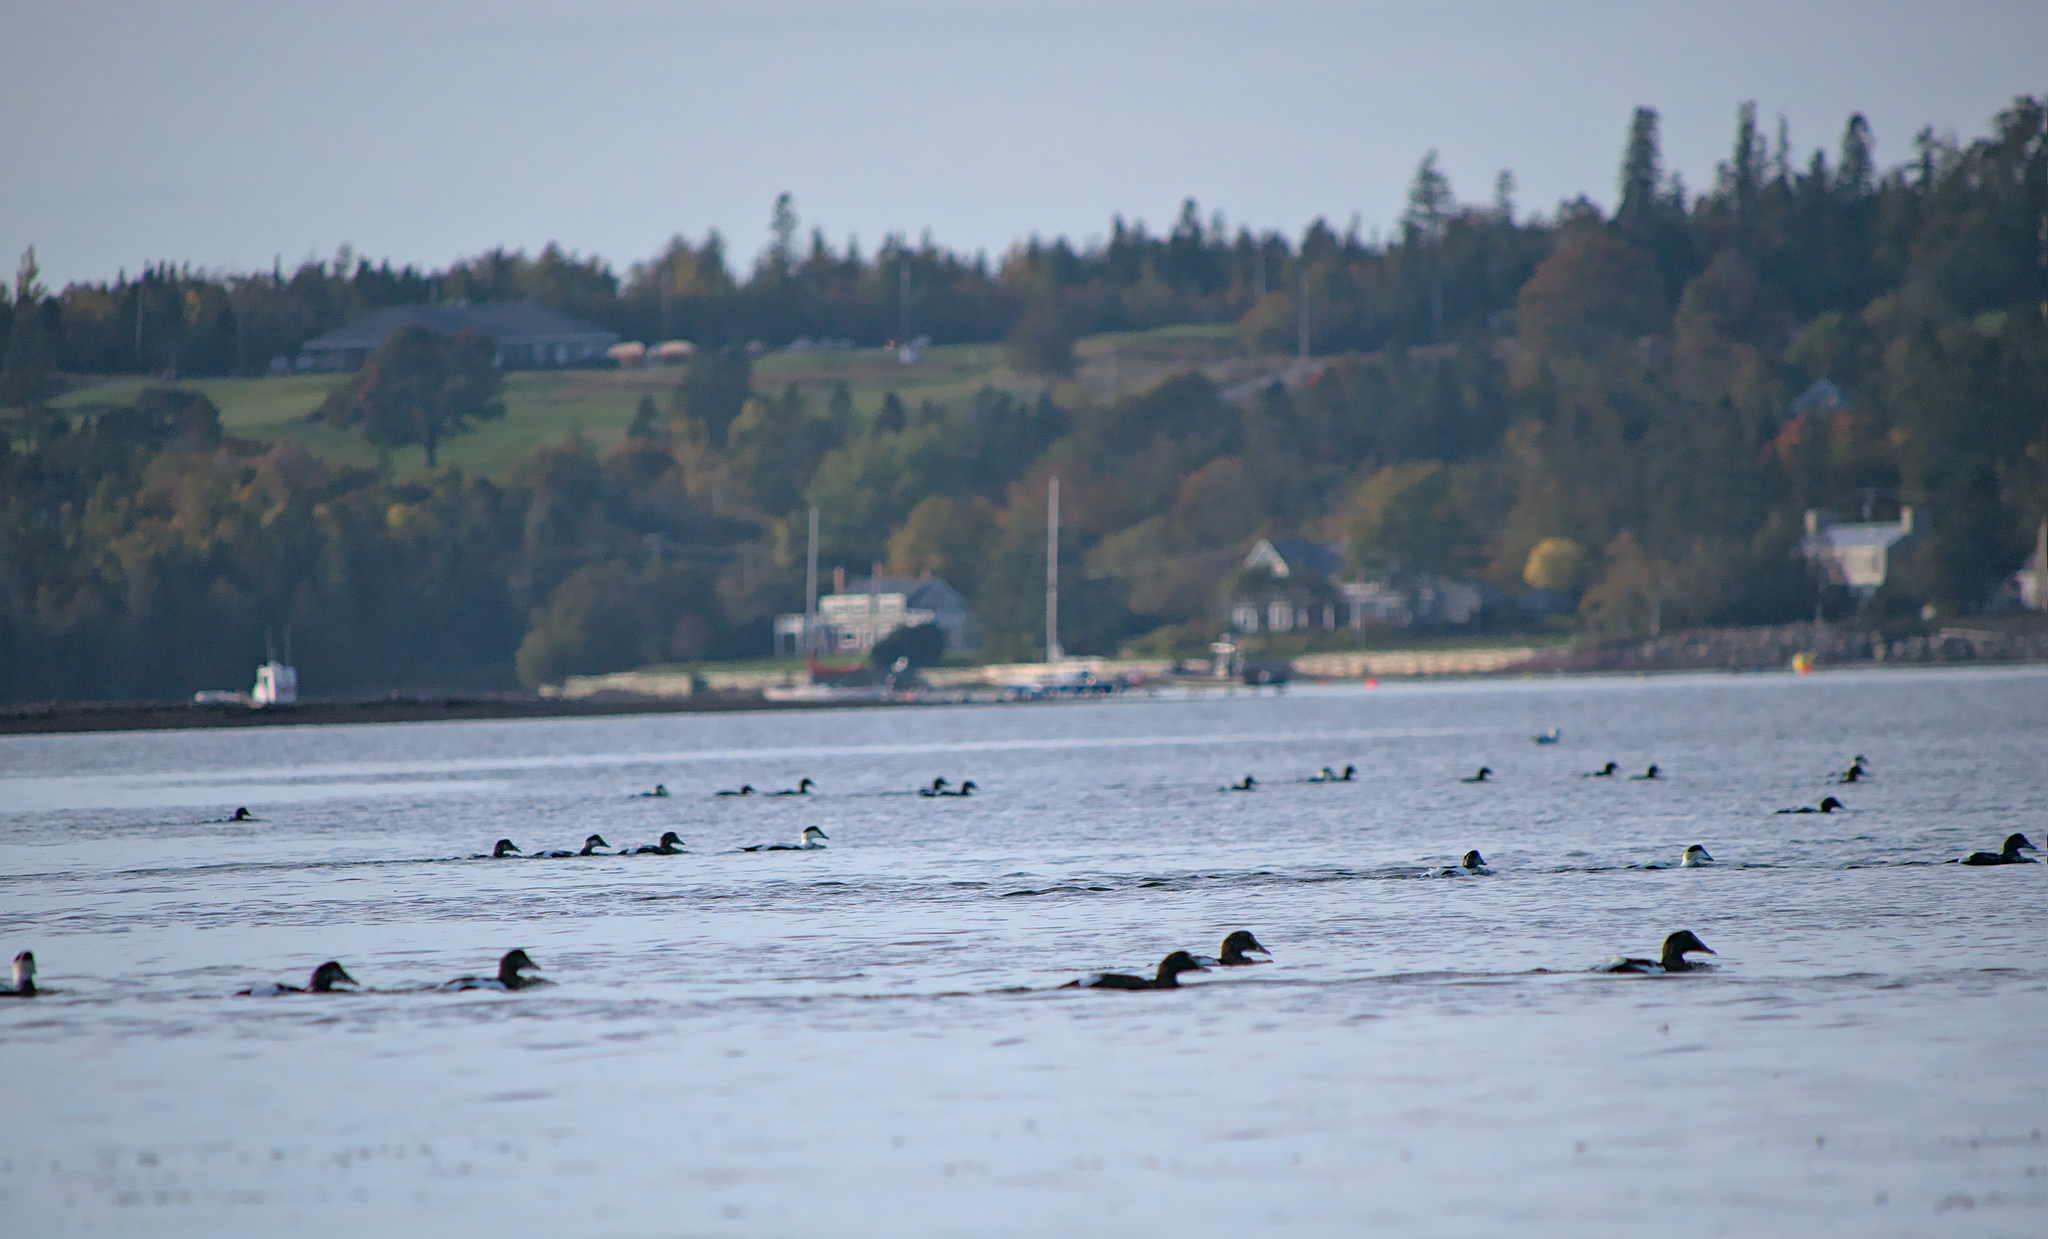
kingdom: Animalia
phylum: Chordata
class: Aves
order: Anseriformes
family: Anatidae
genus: Somateria
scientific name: Somateria mollissima
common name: Common eider
